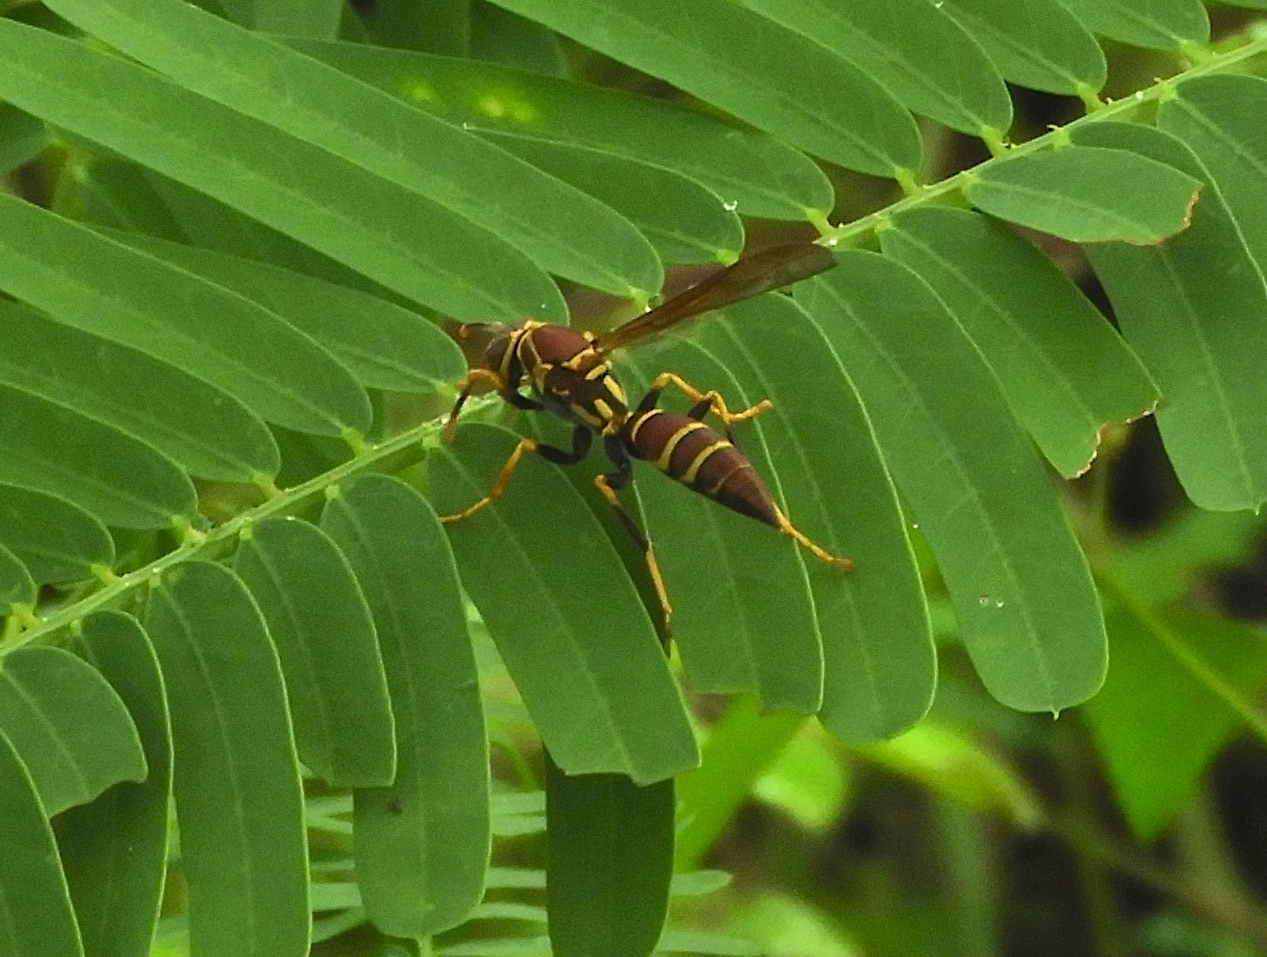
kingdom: Animalia
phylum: Arthropoda
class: Insecta
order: Hymenoptera
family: Eumenidae
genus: Polistes
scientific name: Polistes instabilis
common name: Unstable paper wasp
